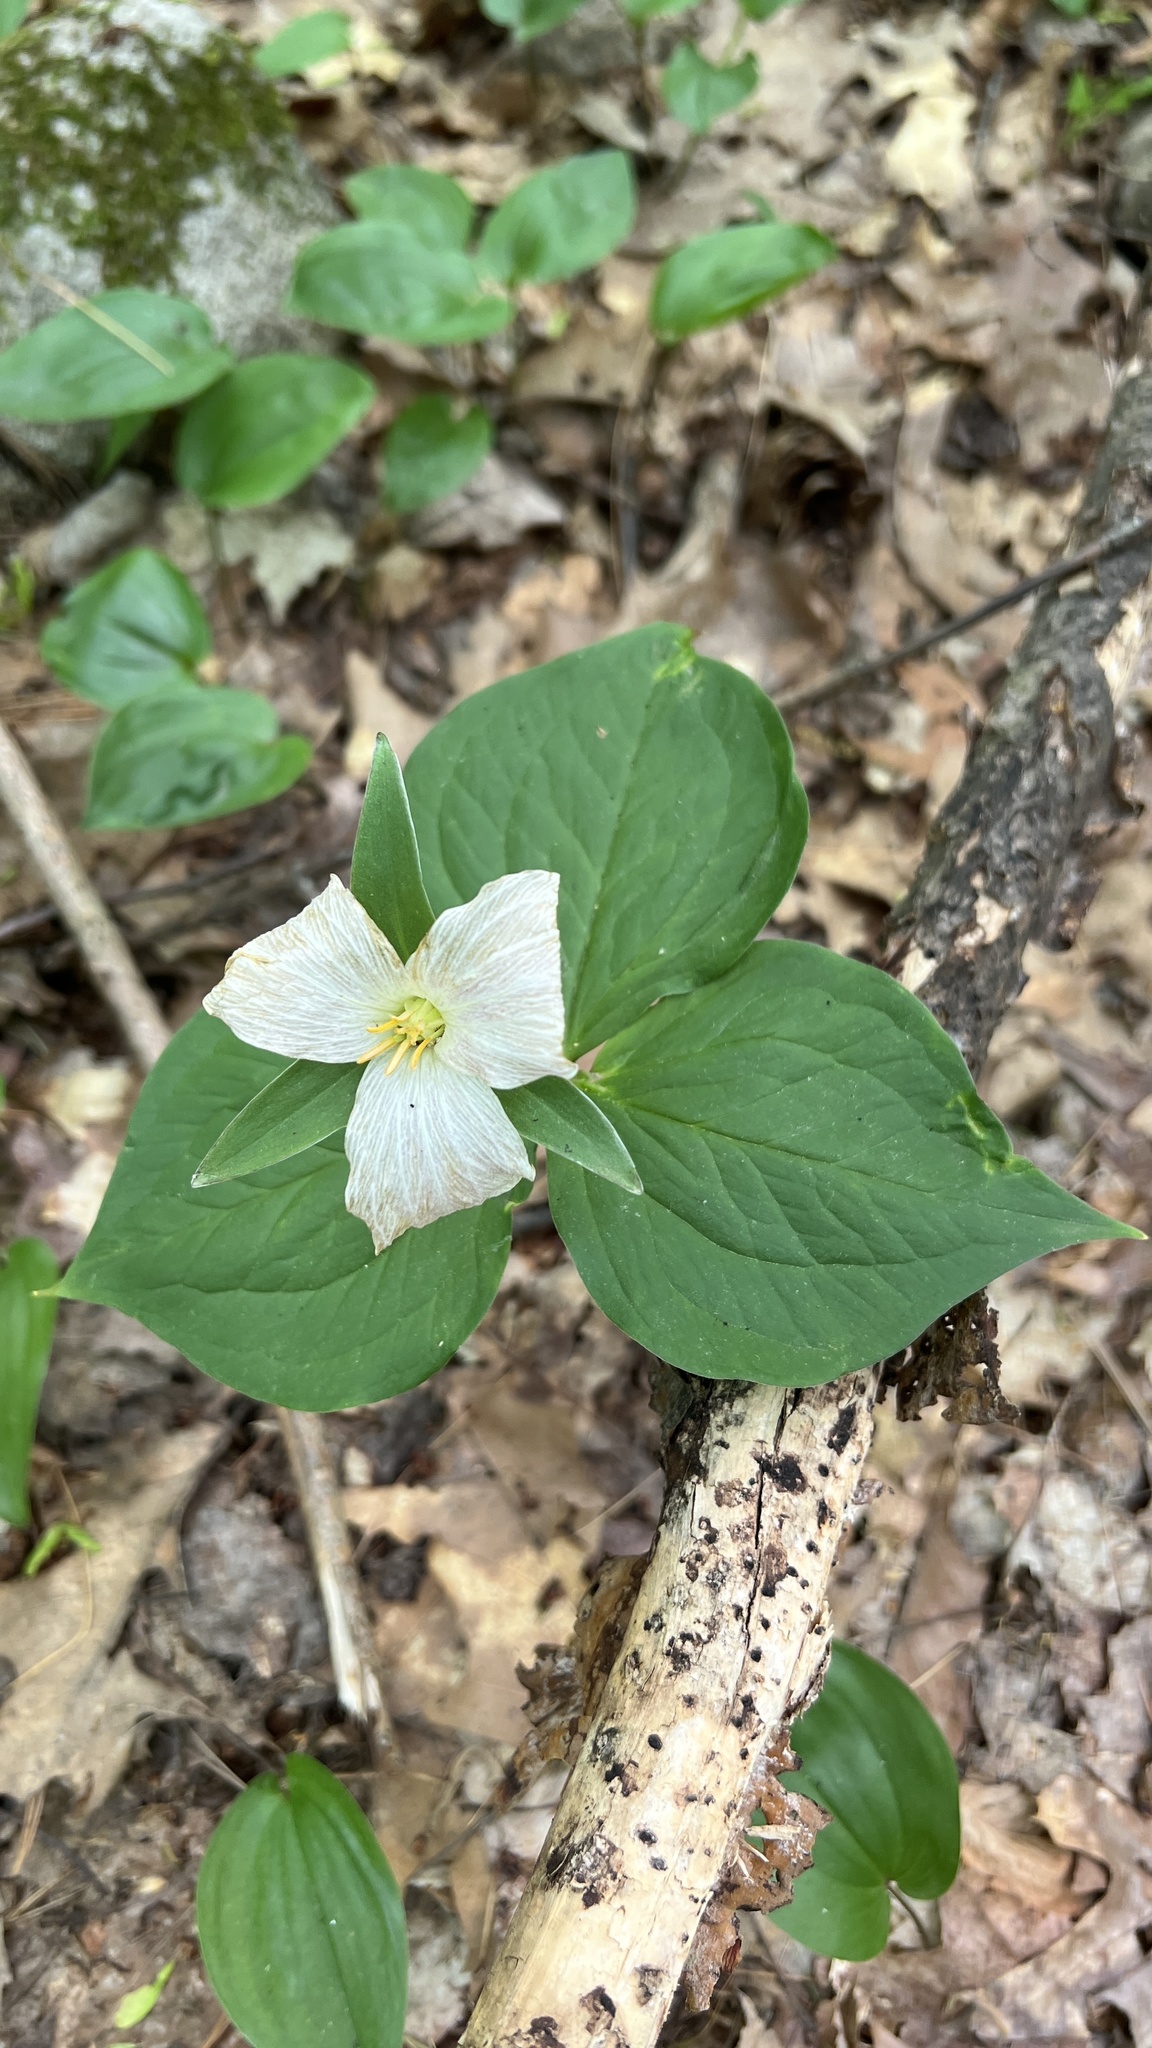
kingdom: Plantae
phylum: Tracheophyta
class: Liliopsida
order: Liliales
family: Melanthiaceae
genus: Trillium
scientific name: Trillium grandiflorum
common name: Great white trillium
